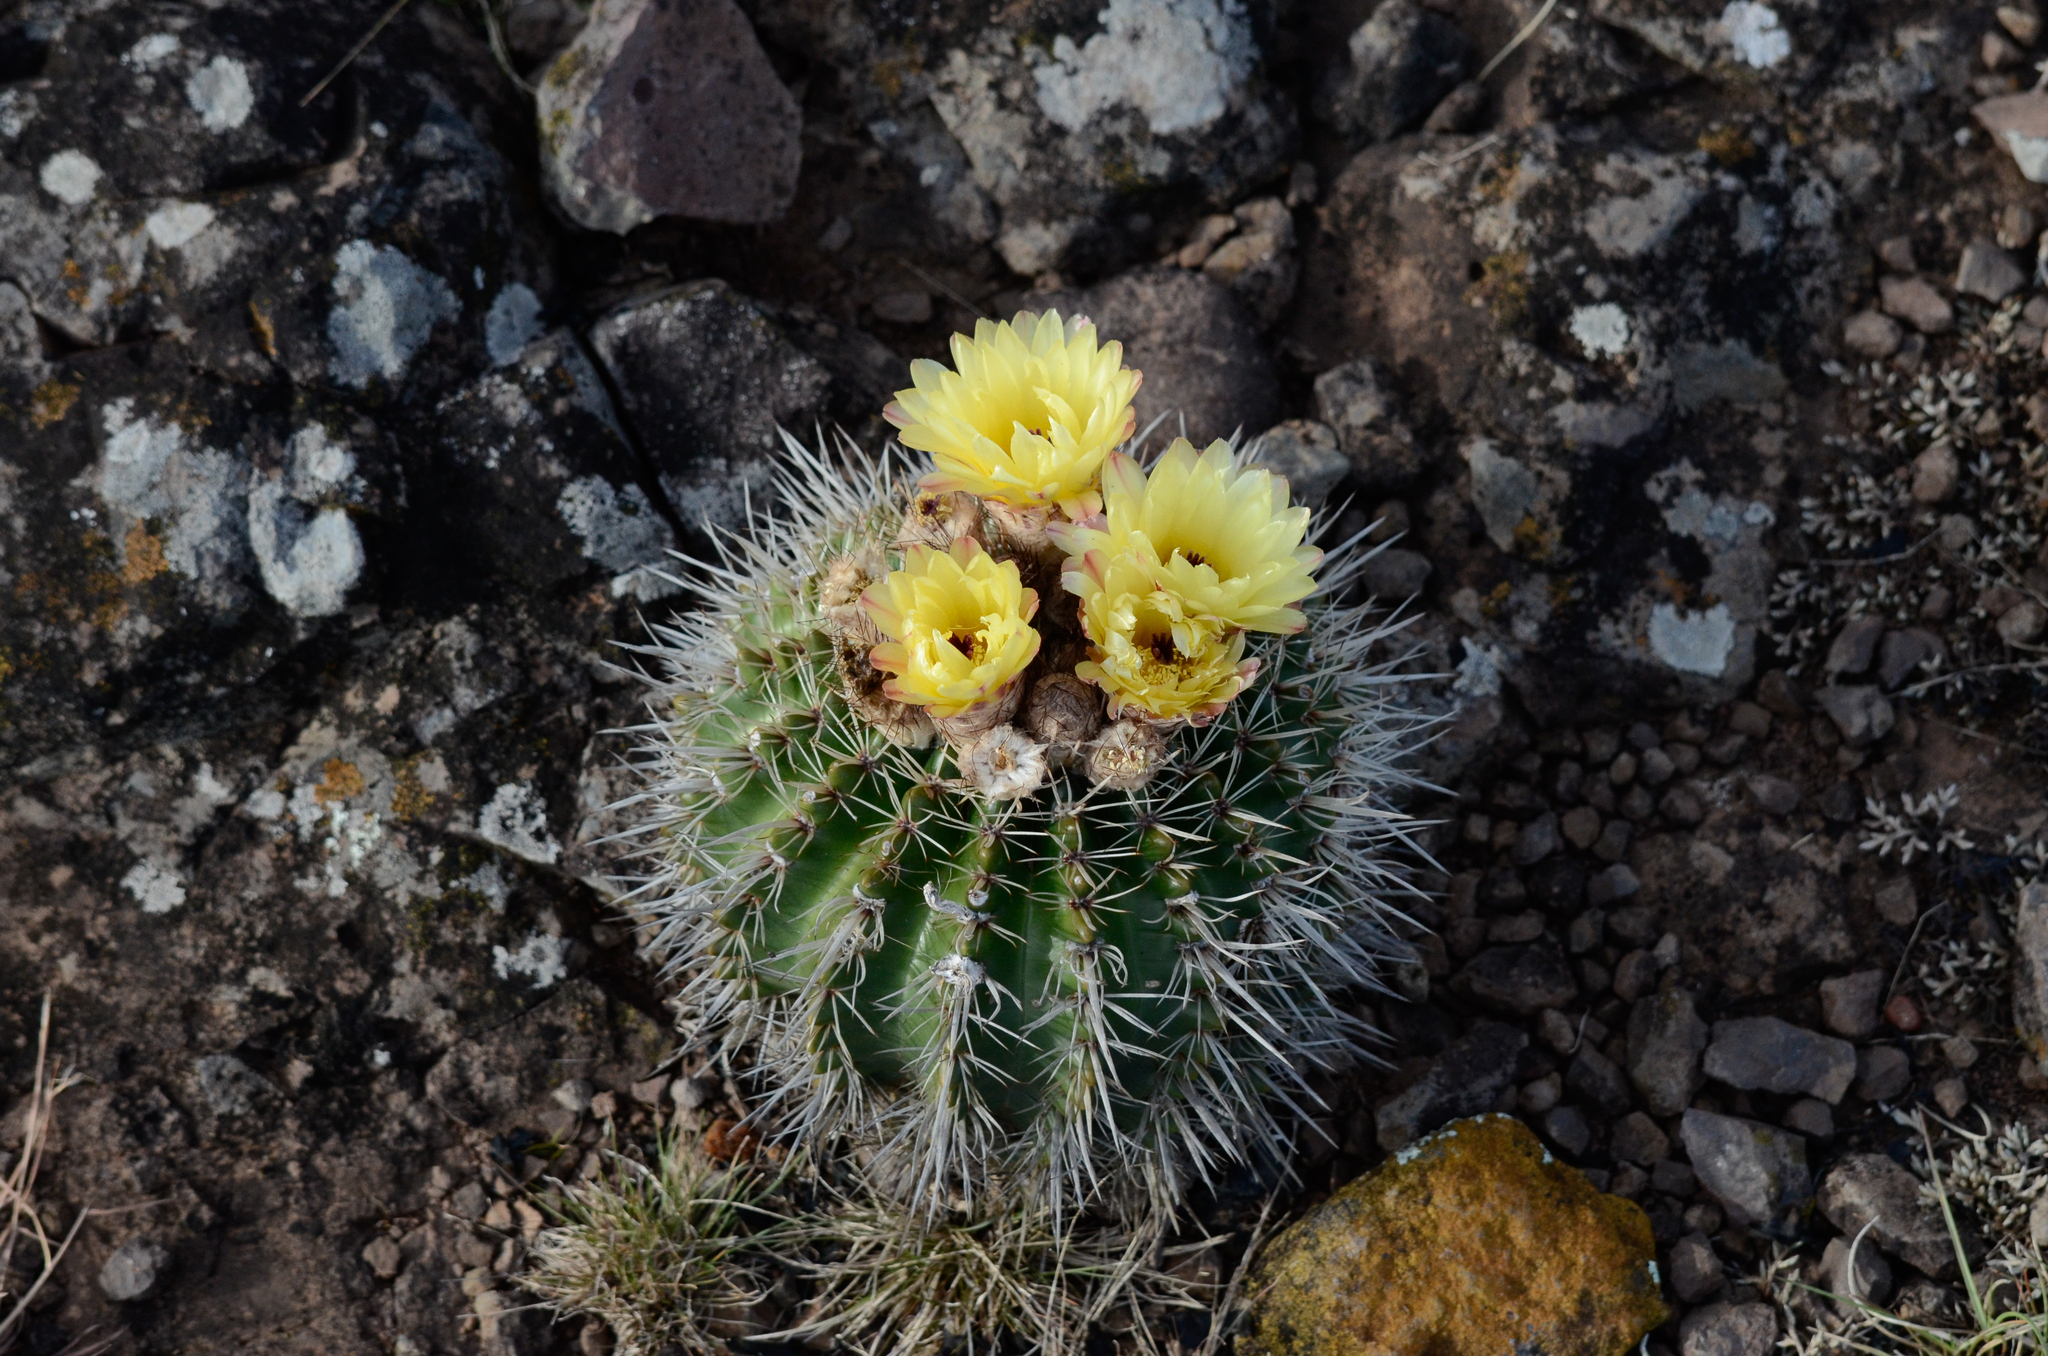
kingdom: Plantae
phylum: Tracheophyta
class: Magnoliopsida
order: Caryophyllales
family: Cactaceae
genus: Parodia
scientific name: Parodia mammulosa
